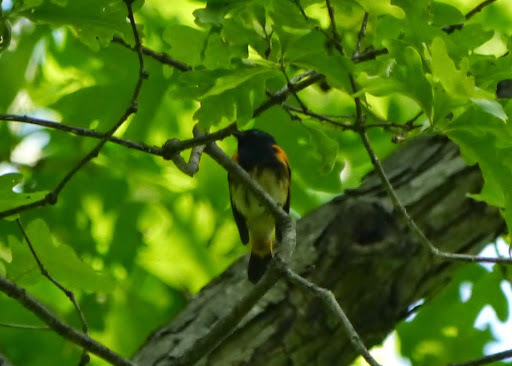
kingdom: Animalia
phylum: Chordata
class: Aves
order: Passeriformes
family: Parulidae
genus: Setophaga
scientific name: Setophaga ruticilla
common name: American redstart
